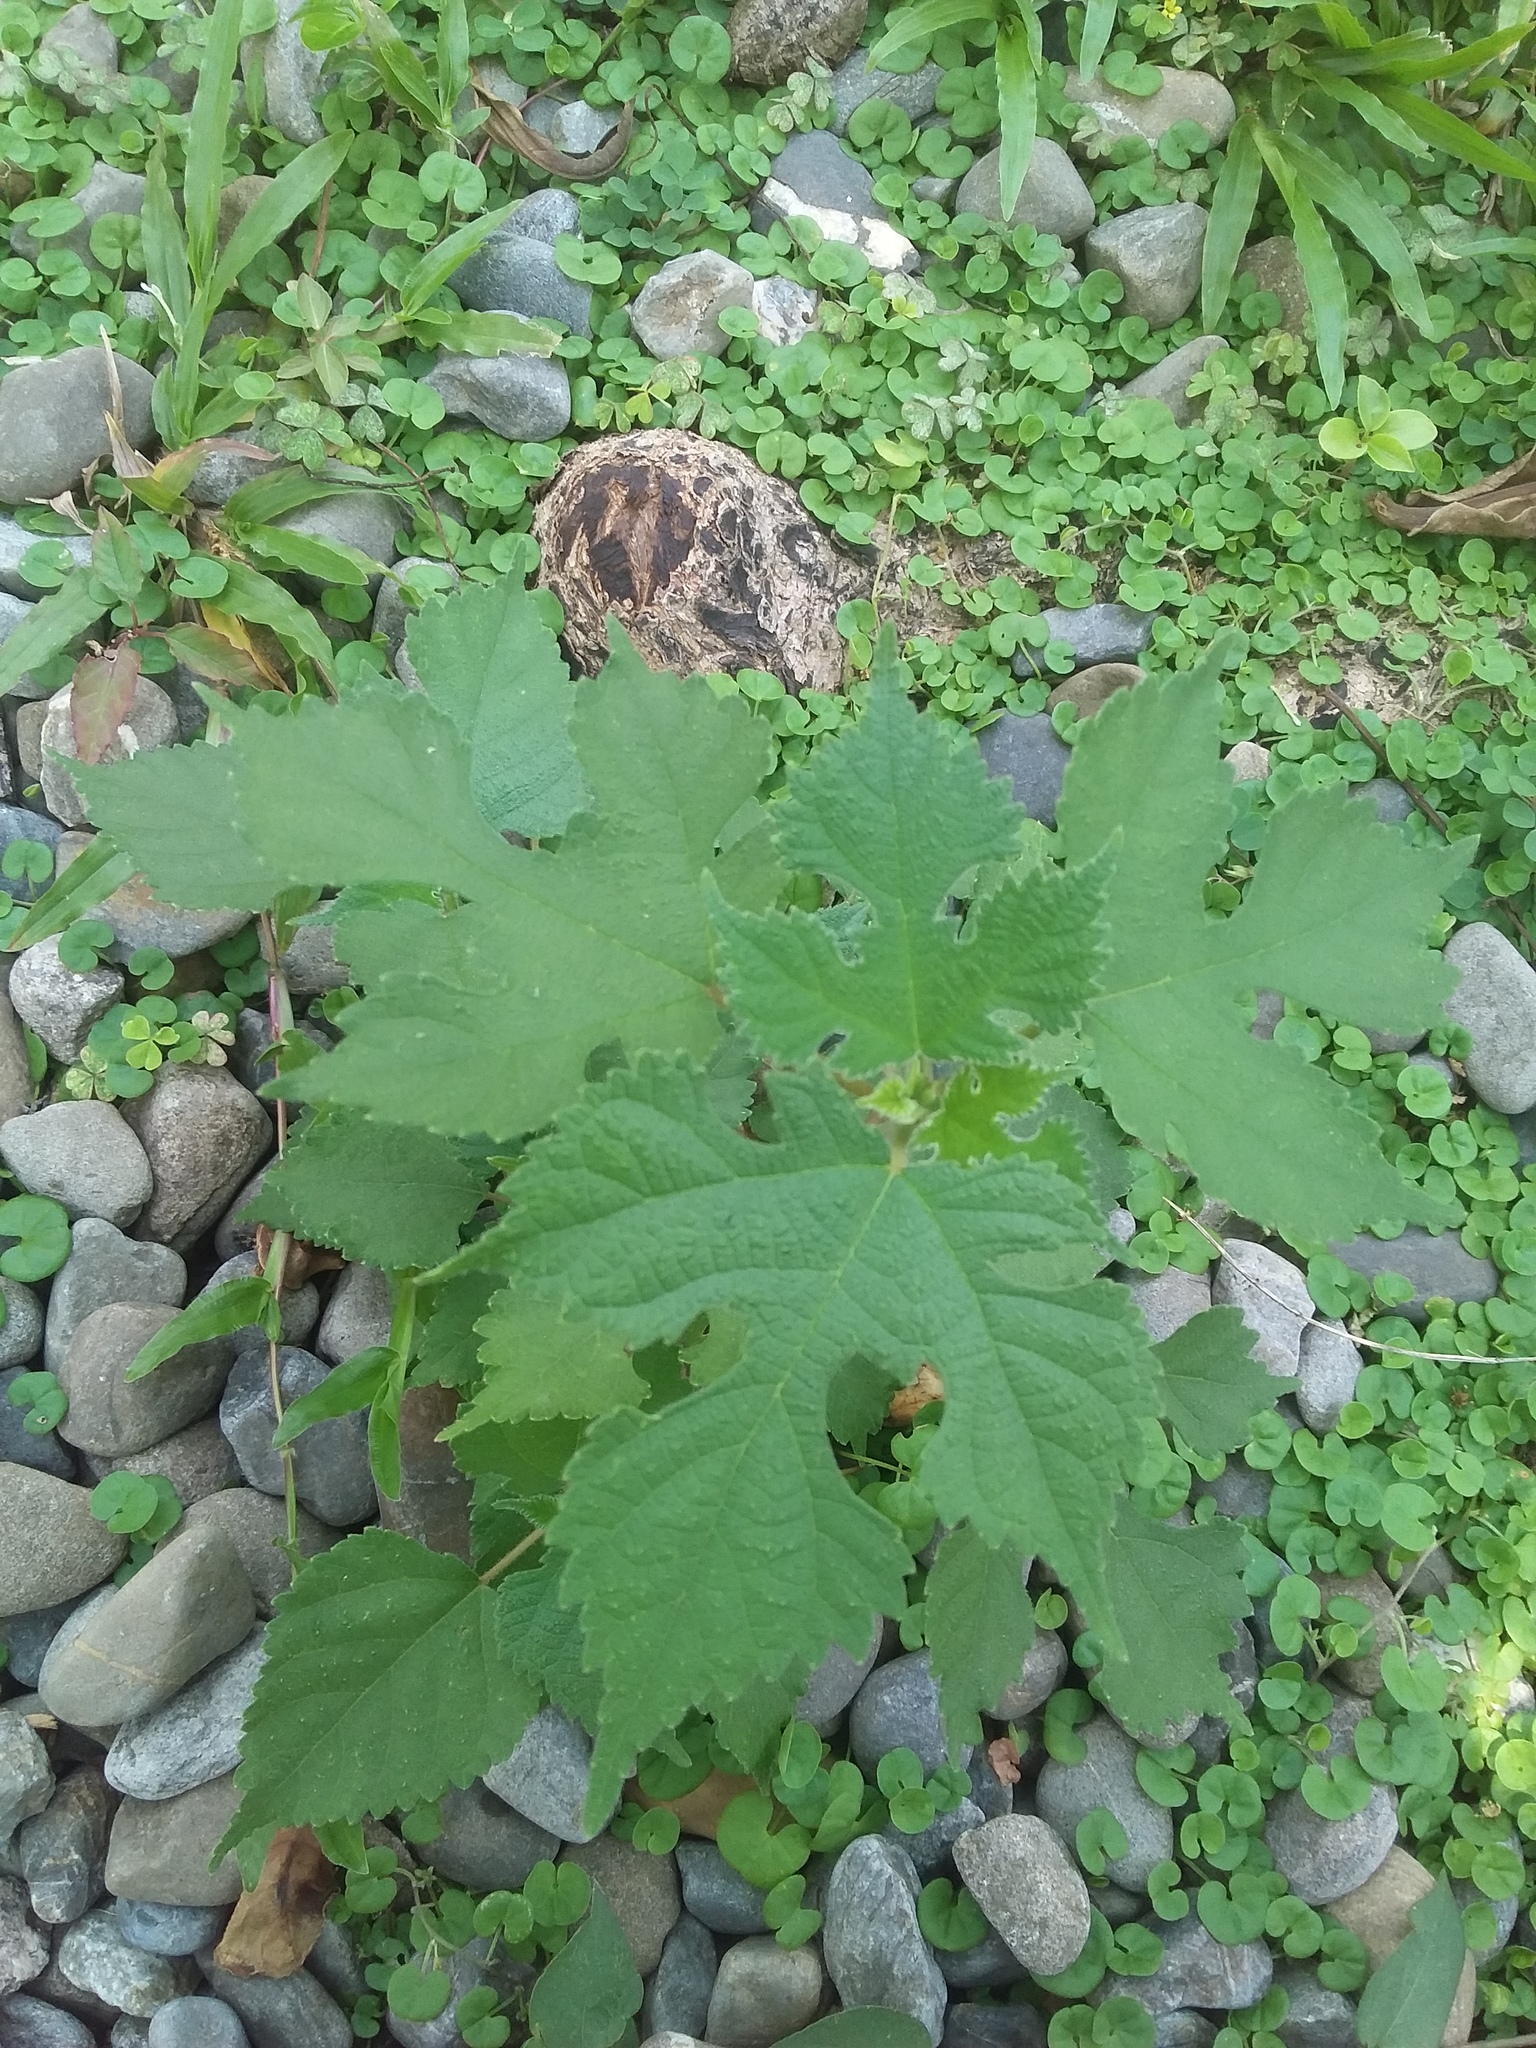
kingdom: Plantae
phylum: Tracheophyta
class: Magnoliopsida
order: Rosales
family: Moraceae
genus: Broussonetia
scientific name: Broussonetia papyrifera
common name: Paper mulberry
